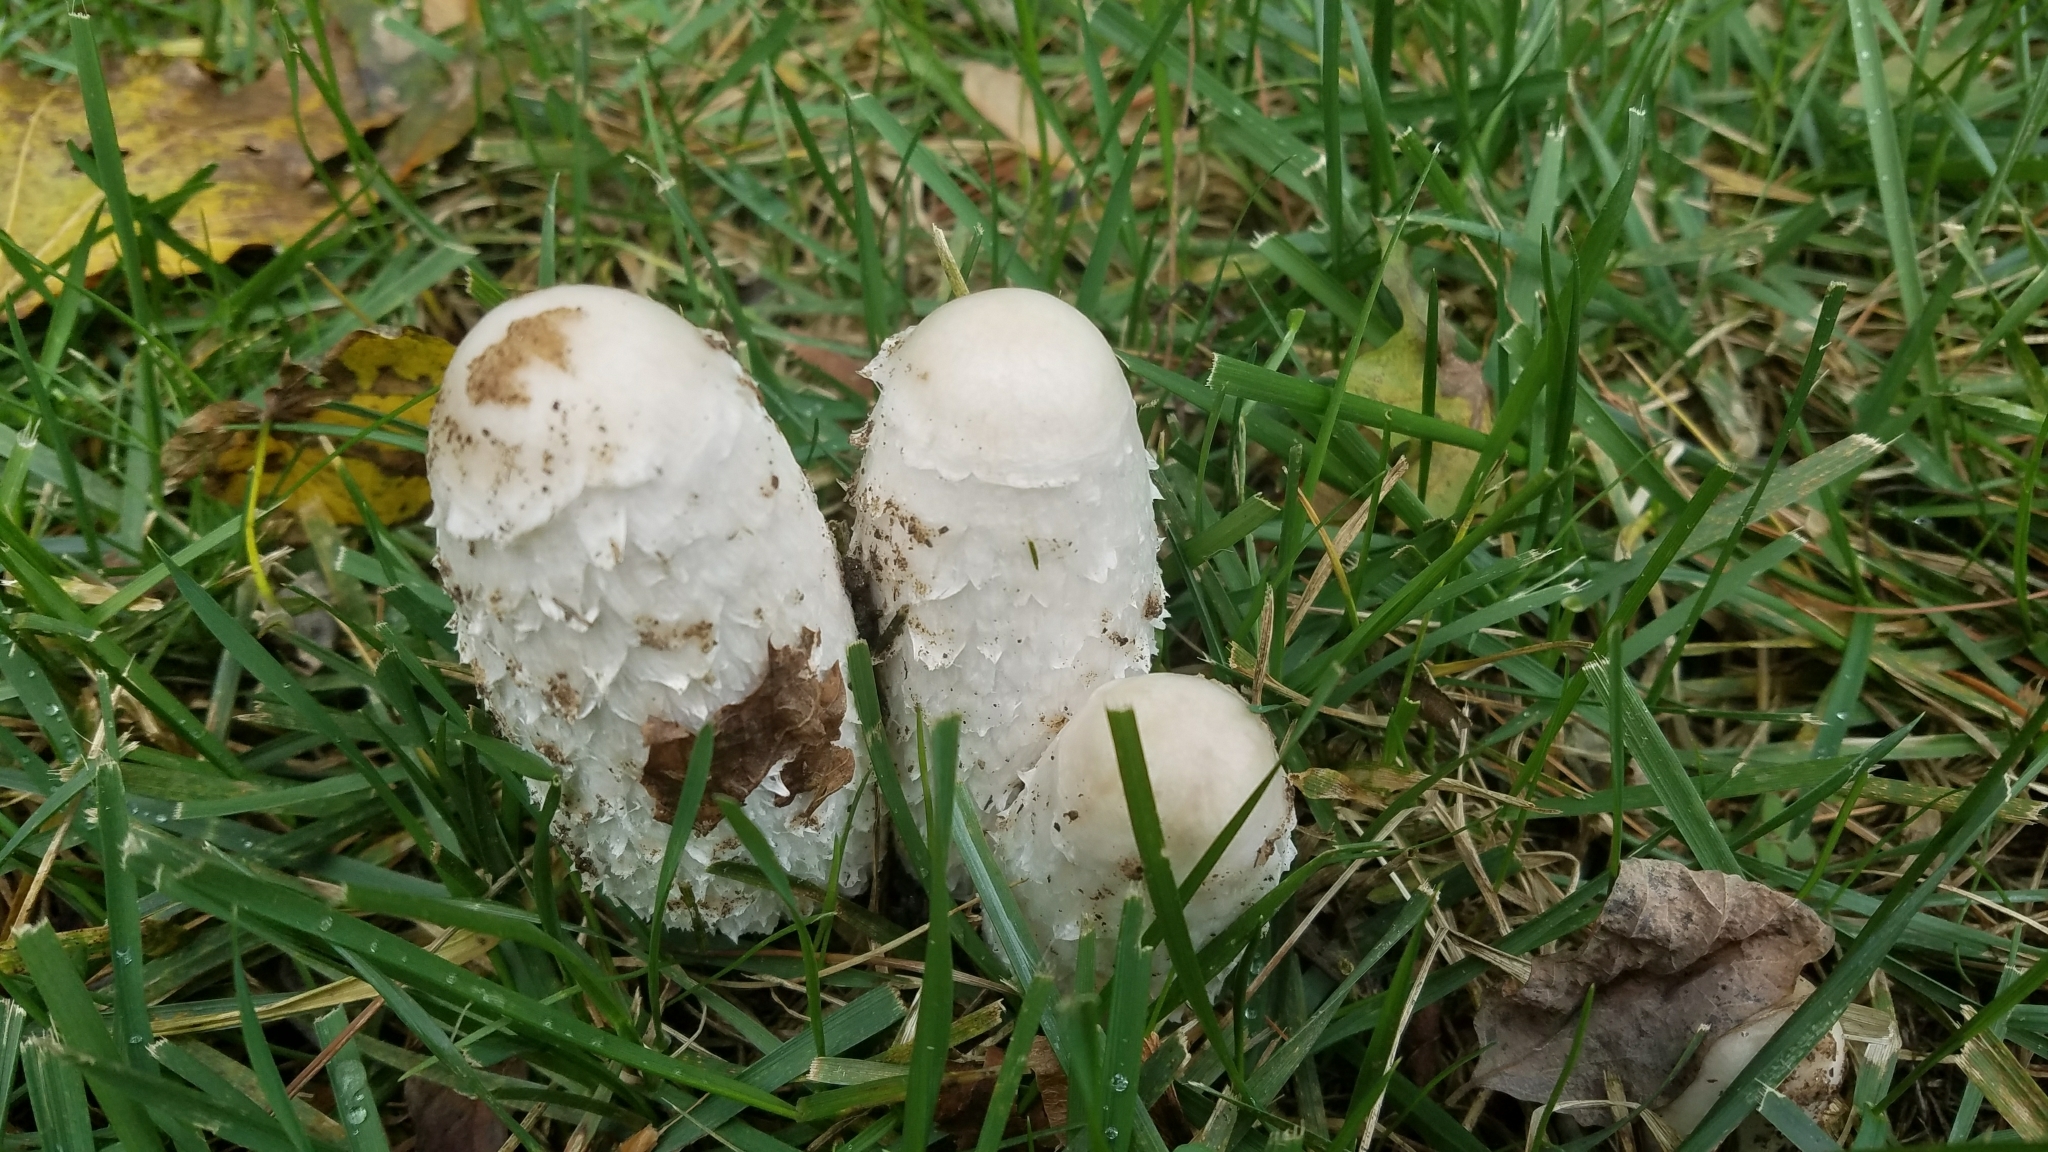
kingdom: Fungi
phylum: Basidiomycota
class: Agaricomycetes
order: Agaricales
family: Agaricaceae
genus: Coprinus
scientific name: Coprinus comatus
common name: Lawyer's wig
